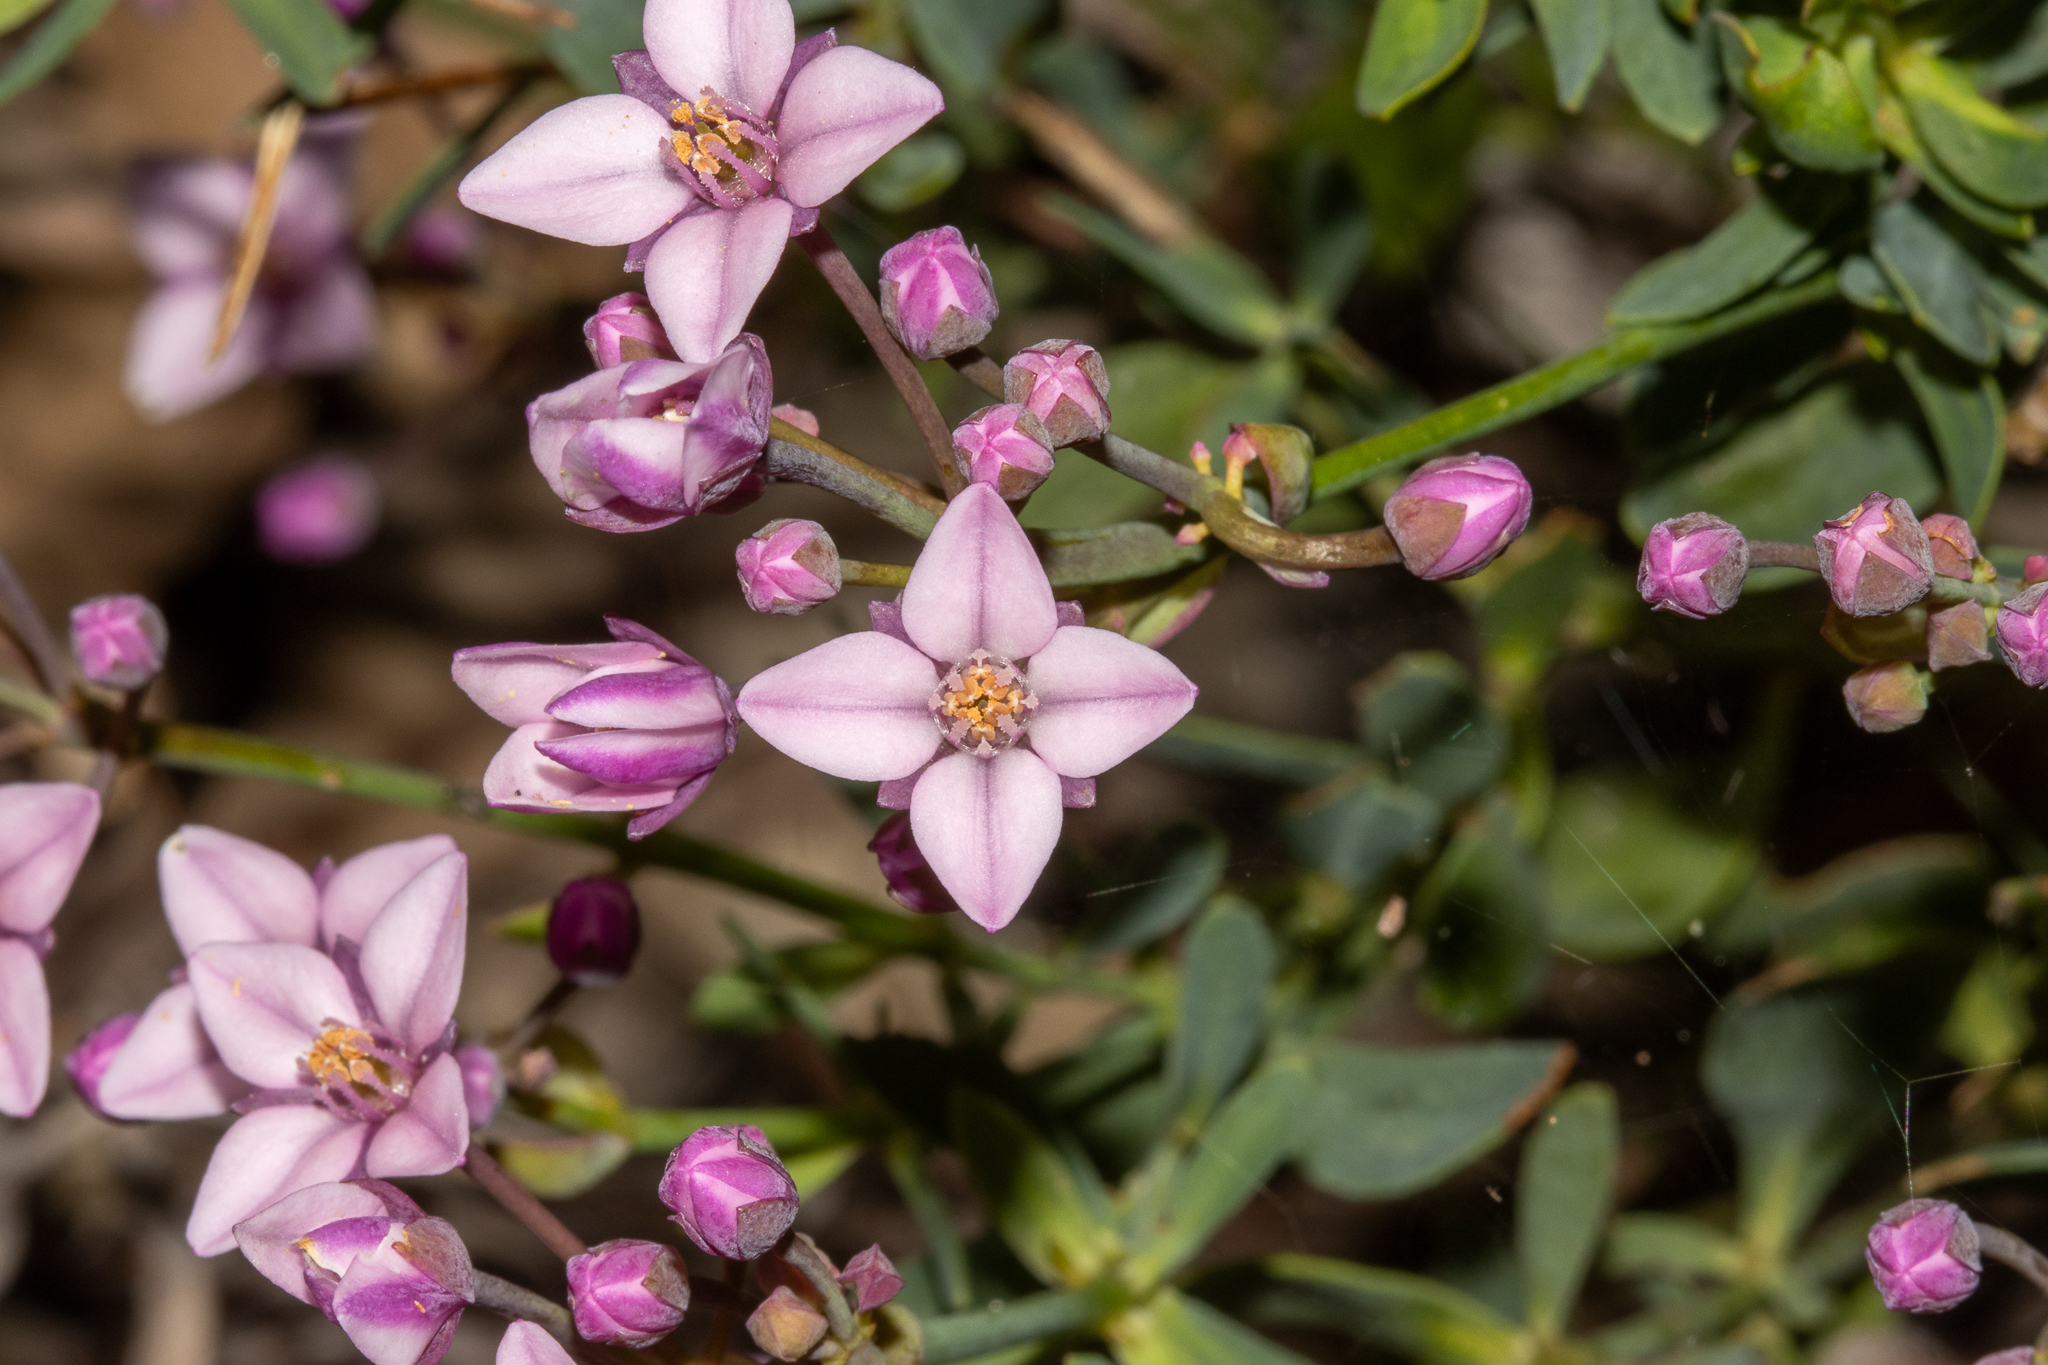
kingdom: Plantae
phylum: Tracheophyta
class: Magnoliopsida
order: Sapindales
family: Rutaceae
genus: Boronia
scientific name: Boronia fastigiata
